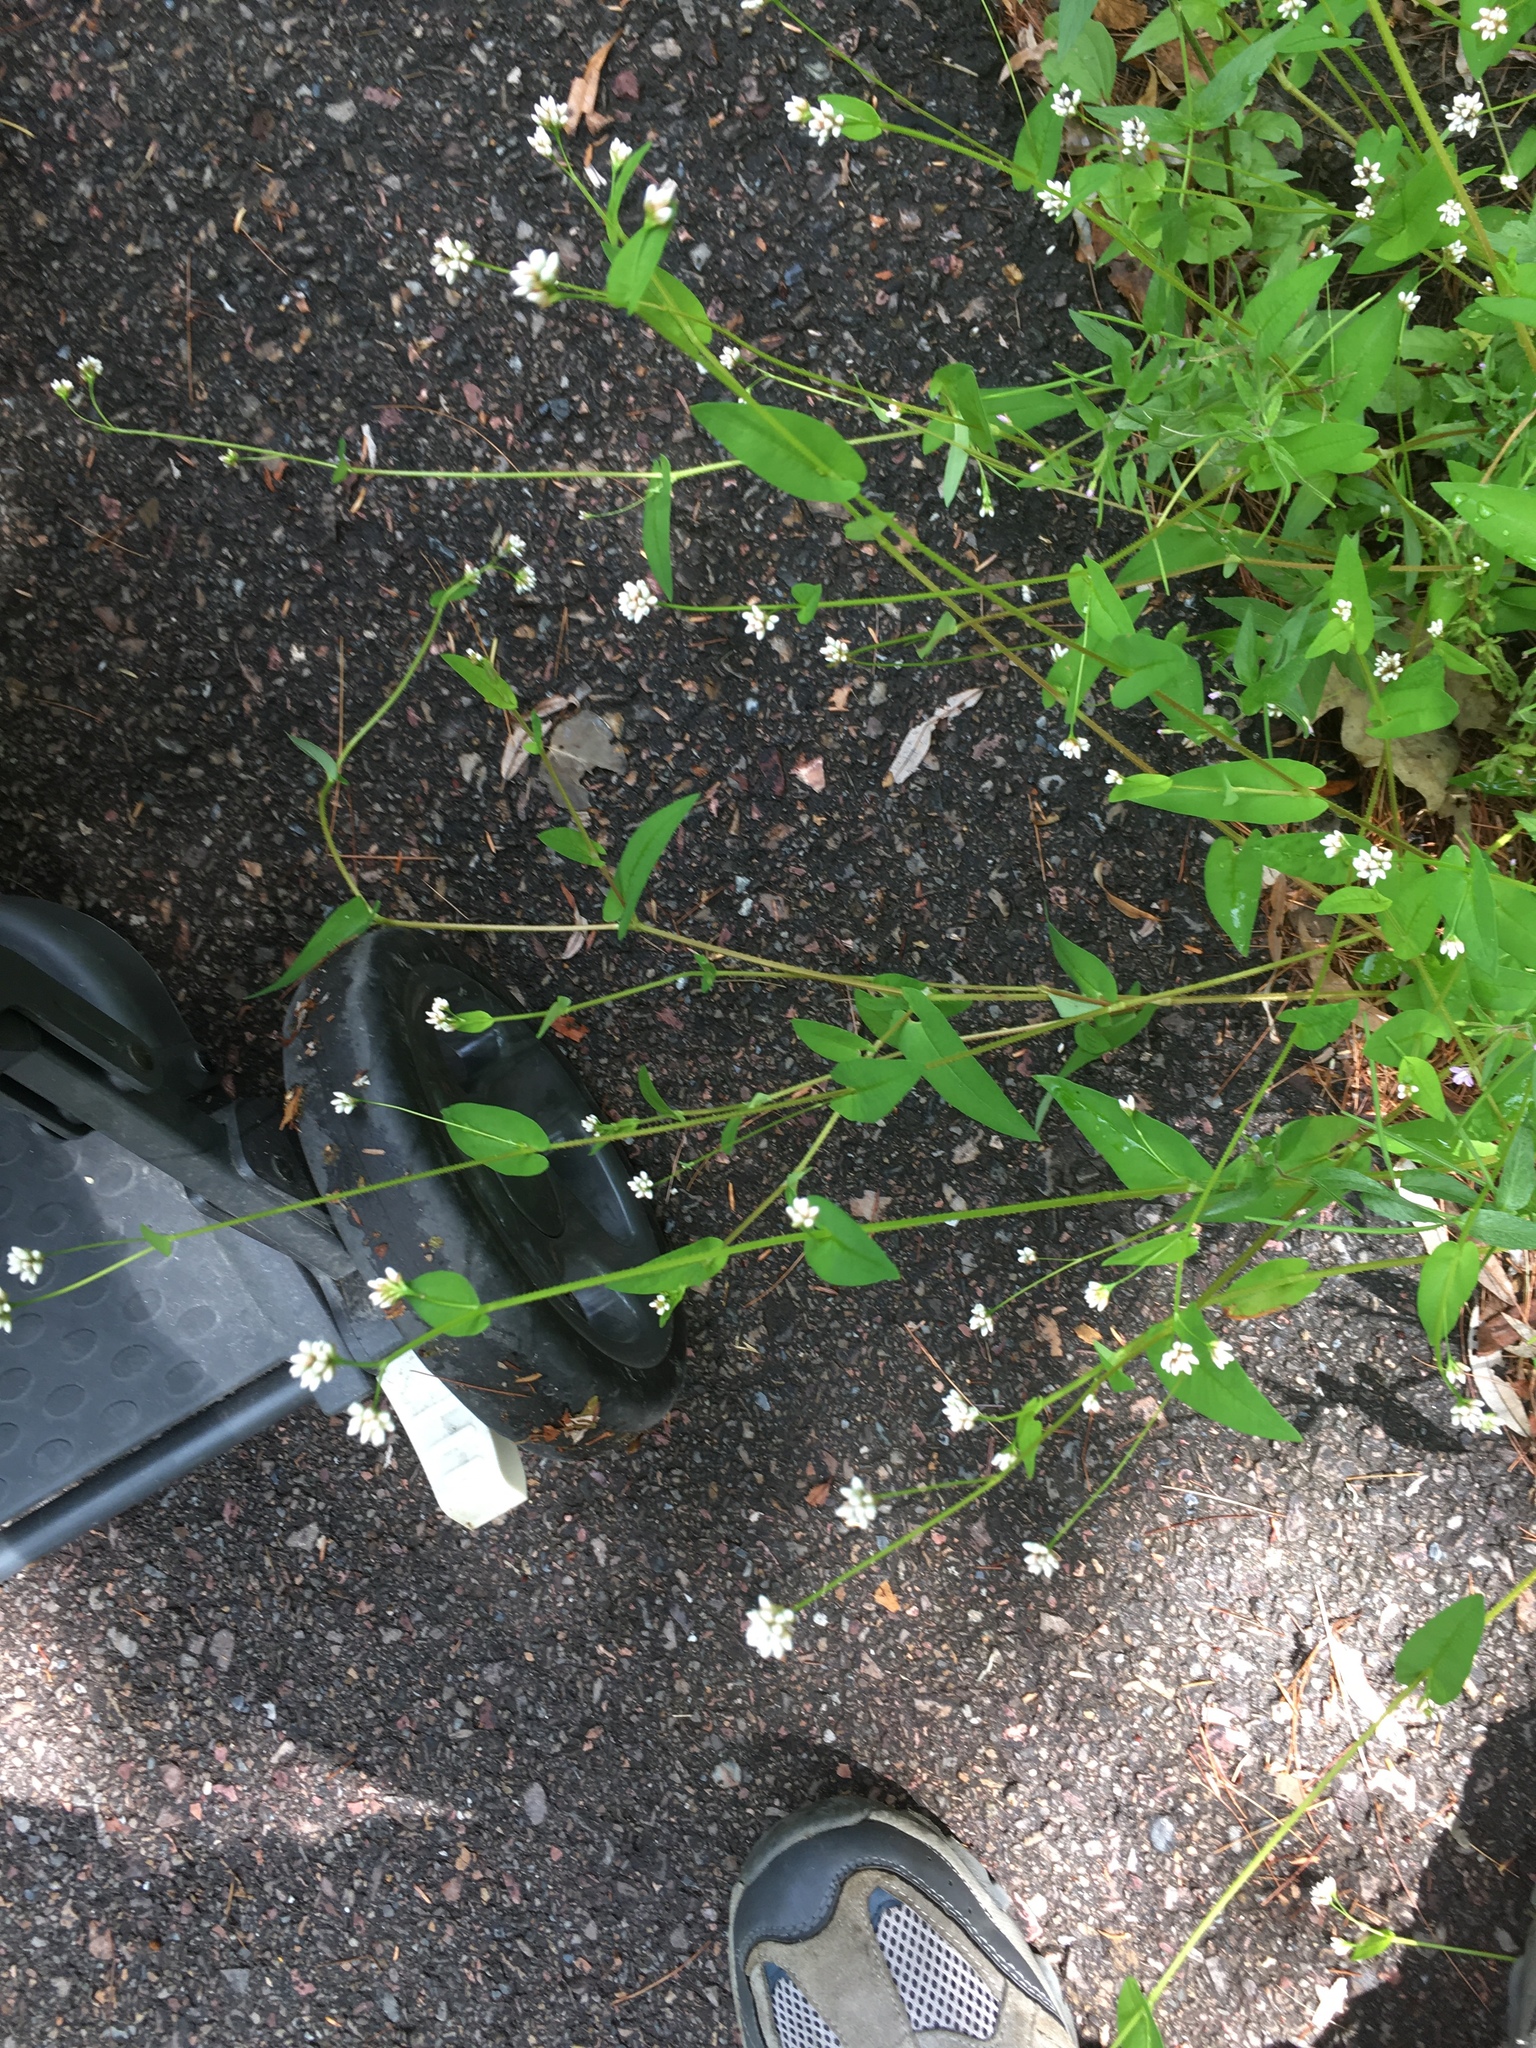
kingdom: Plantae
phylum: Tracheophyta
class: Magnoliopsida
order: Caryophyllales
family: Polygonaceae
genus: Persicaria
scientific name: Persicaria sagittata
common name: American tearthumb
